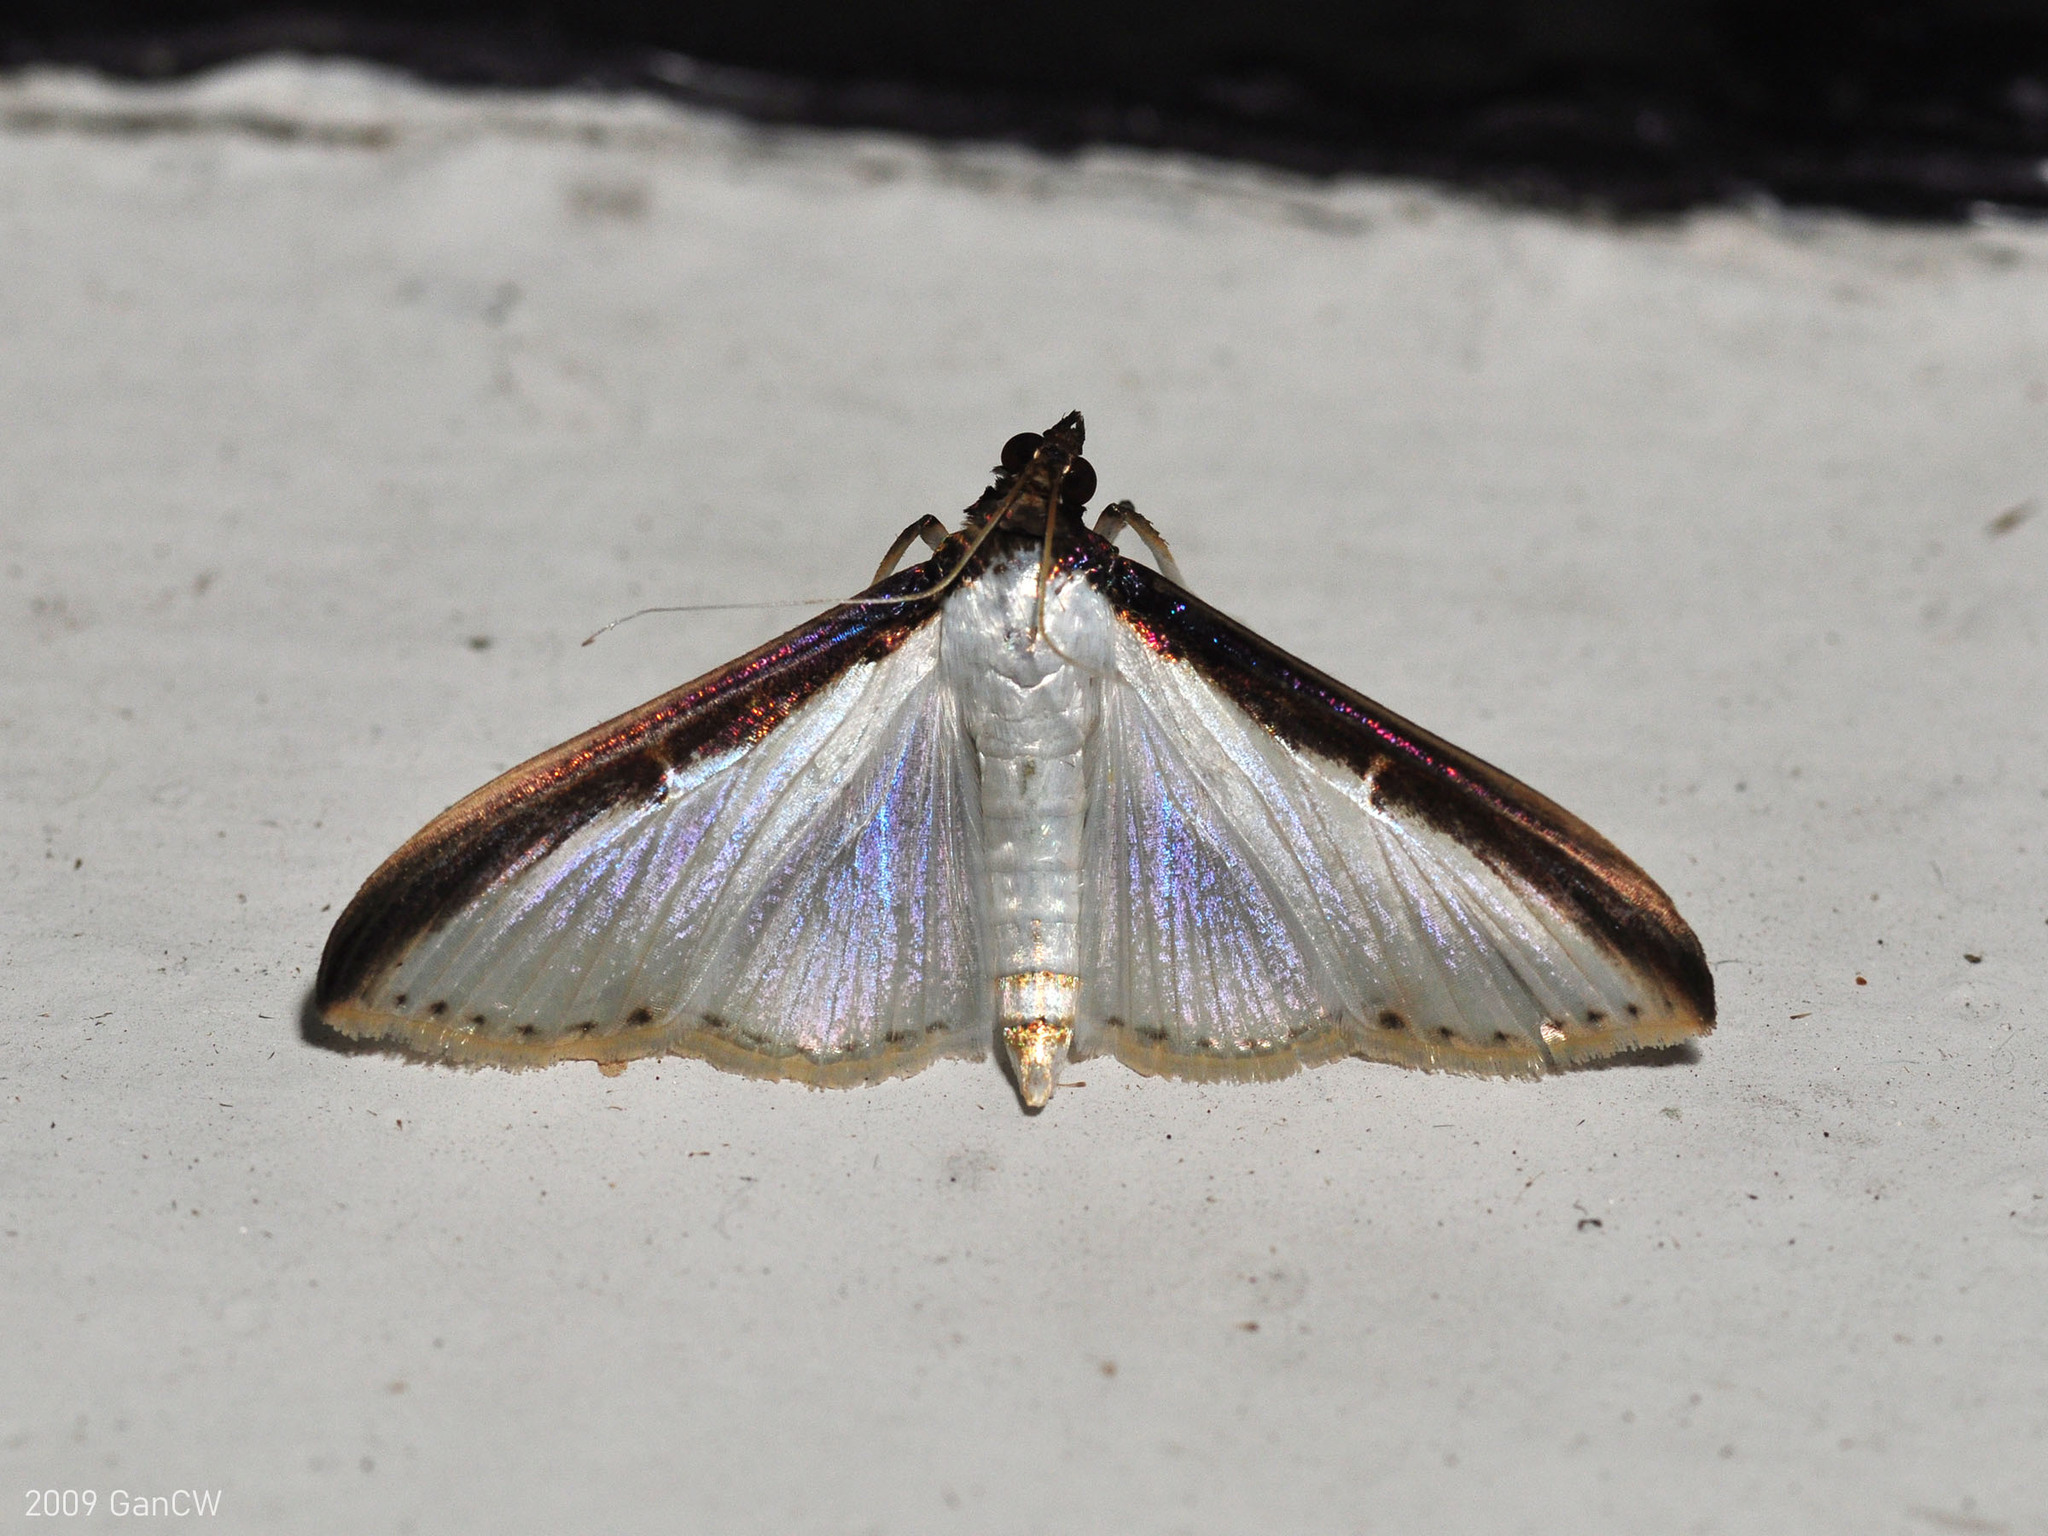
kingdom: Animalia
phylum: Arthropoda
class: Insecta
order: Lepidoptera
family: Crambidae
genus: Cydalima
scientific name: Cydalima laticostalis
